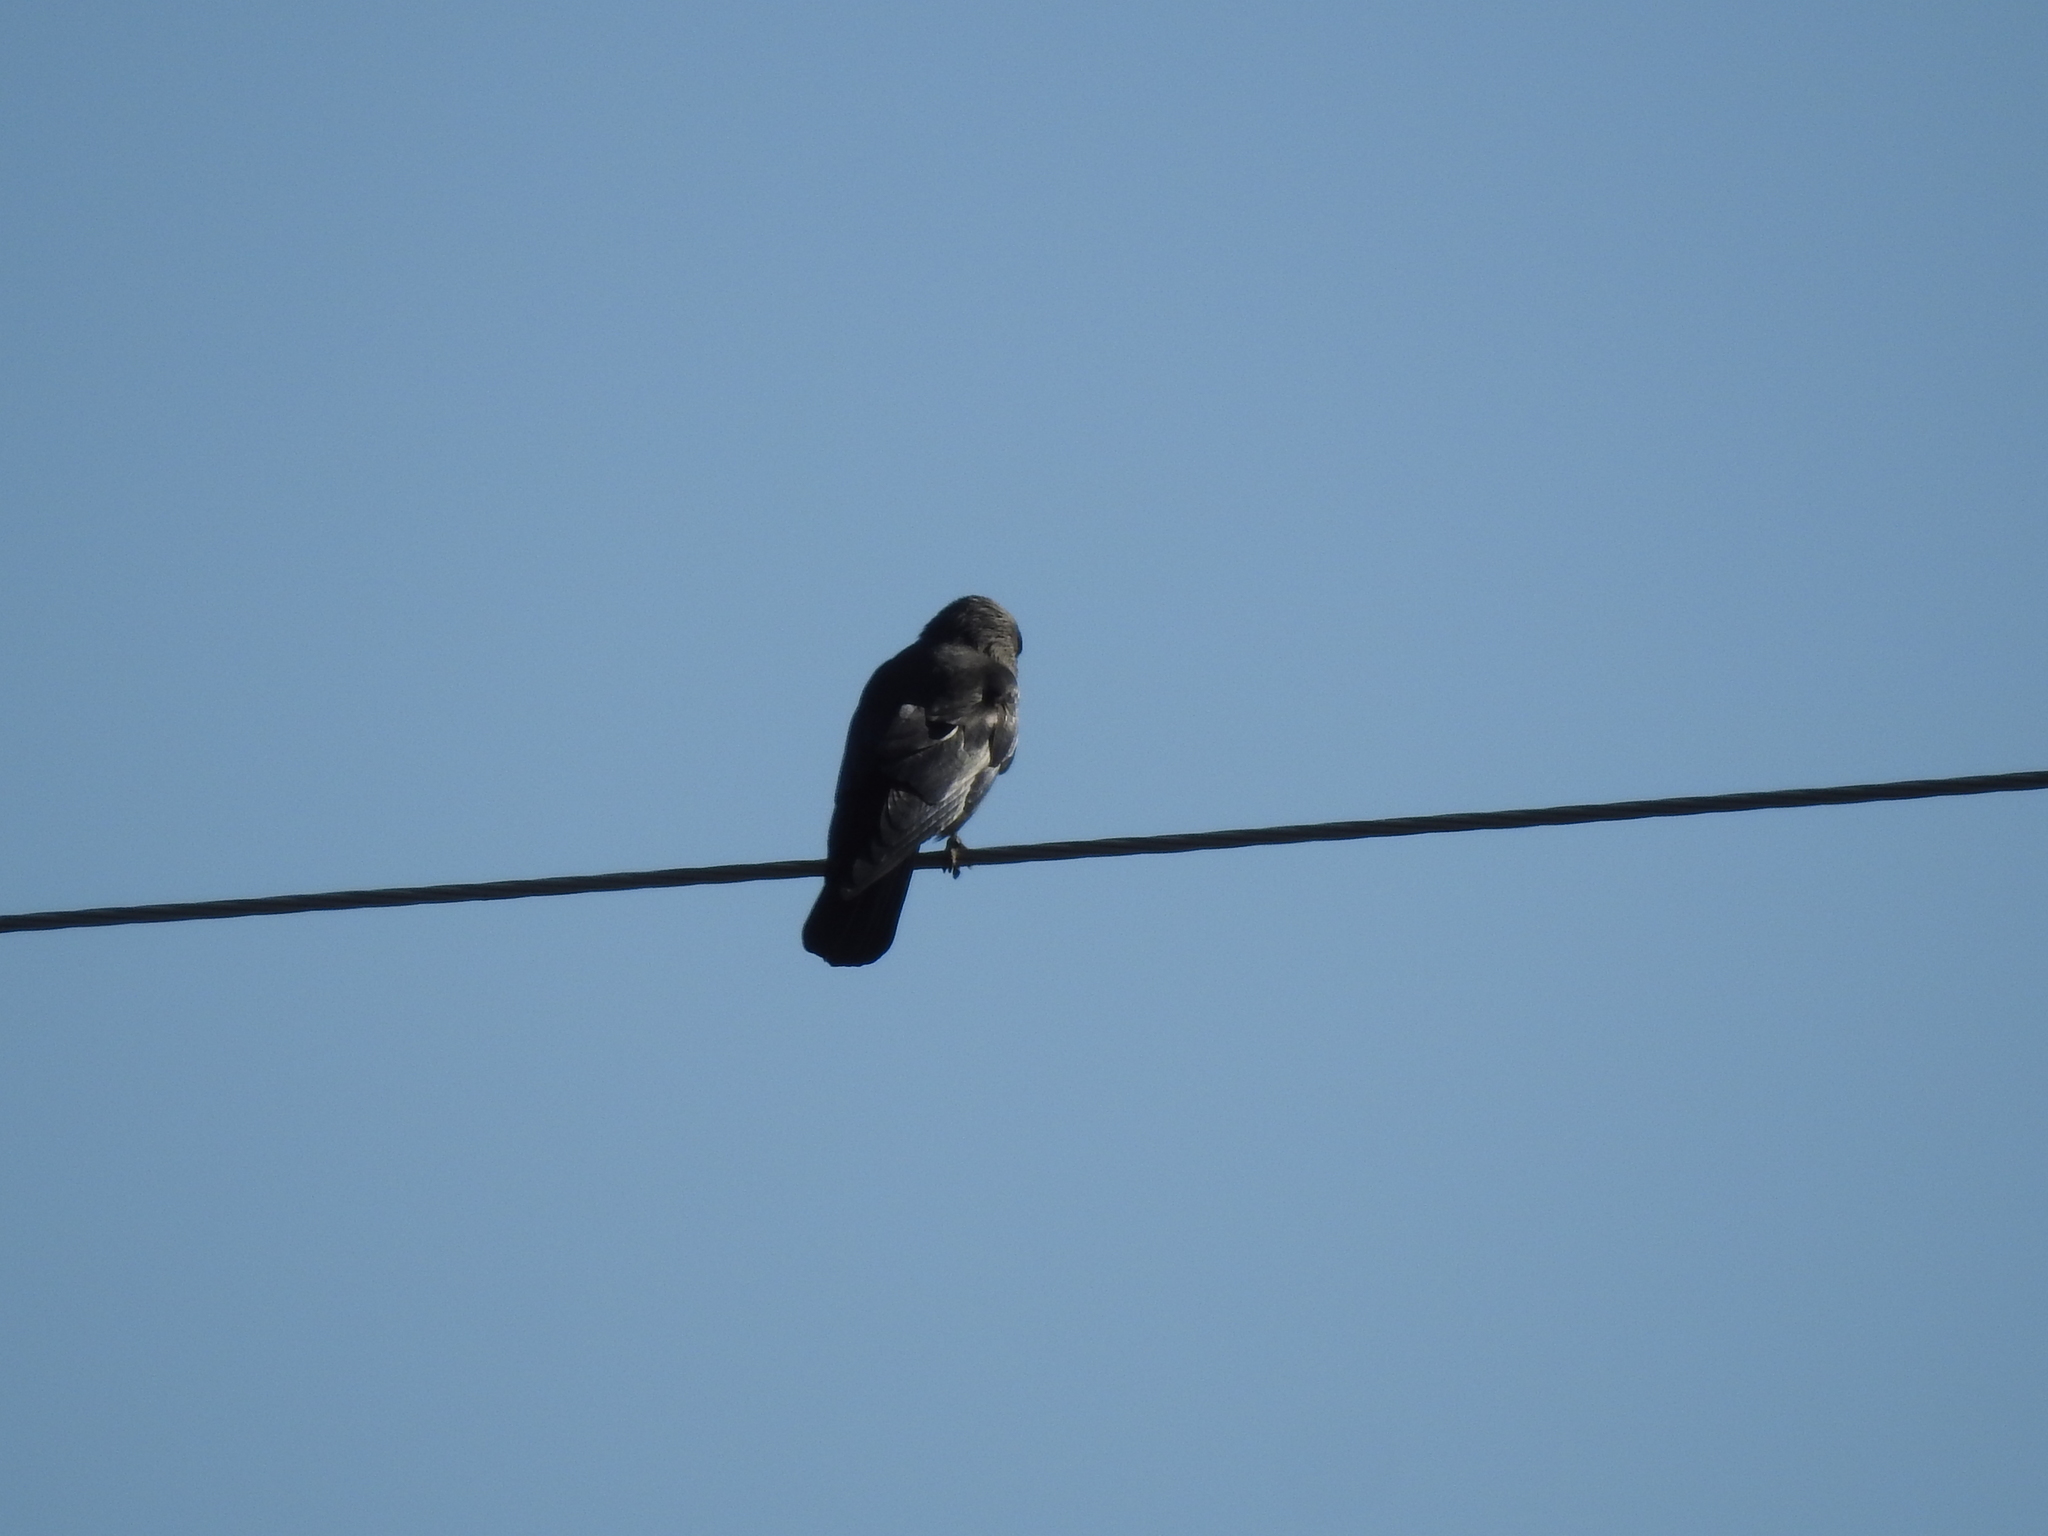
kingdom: Animalia
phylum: Chordata
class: Aves
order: Passeriformes
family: Corvidae
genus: Coloeus
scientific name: Coloeus monedula
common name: Western jackdaw
